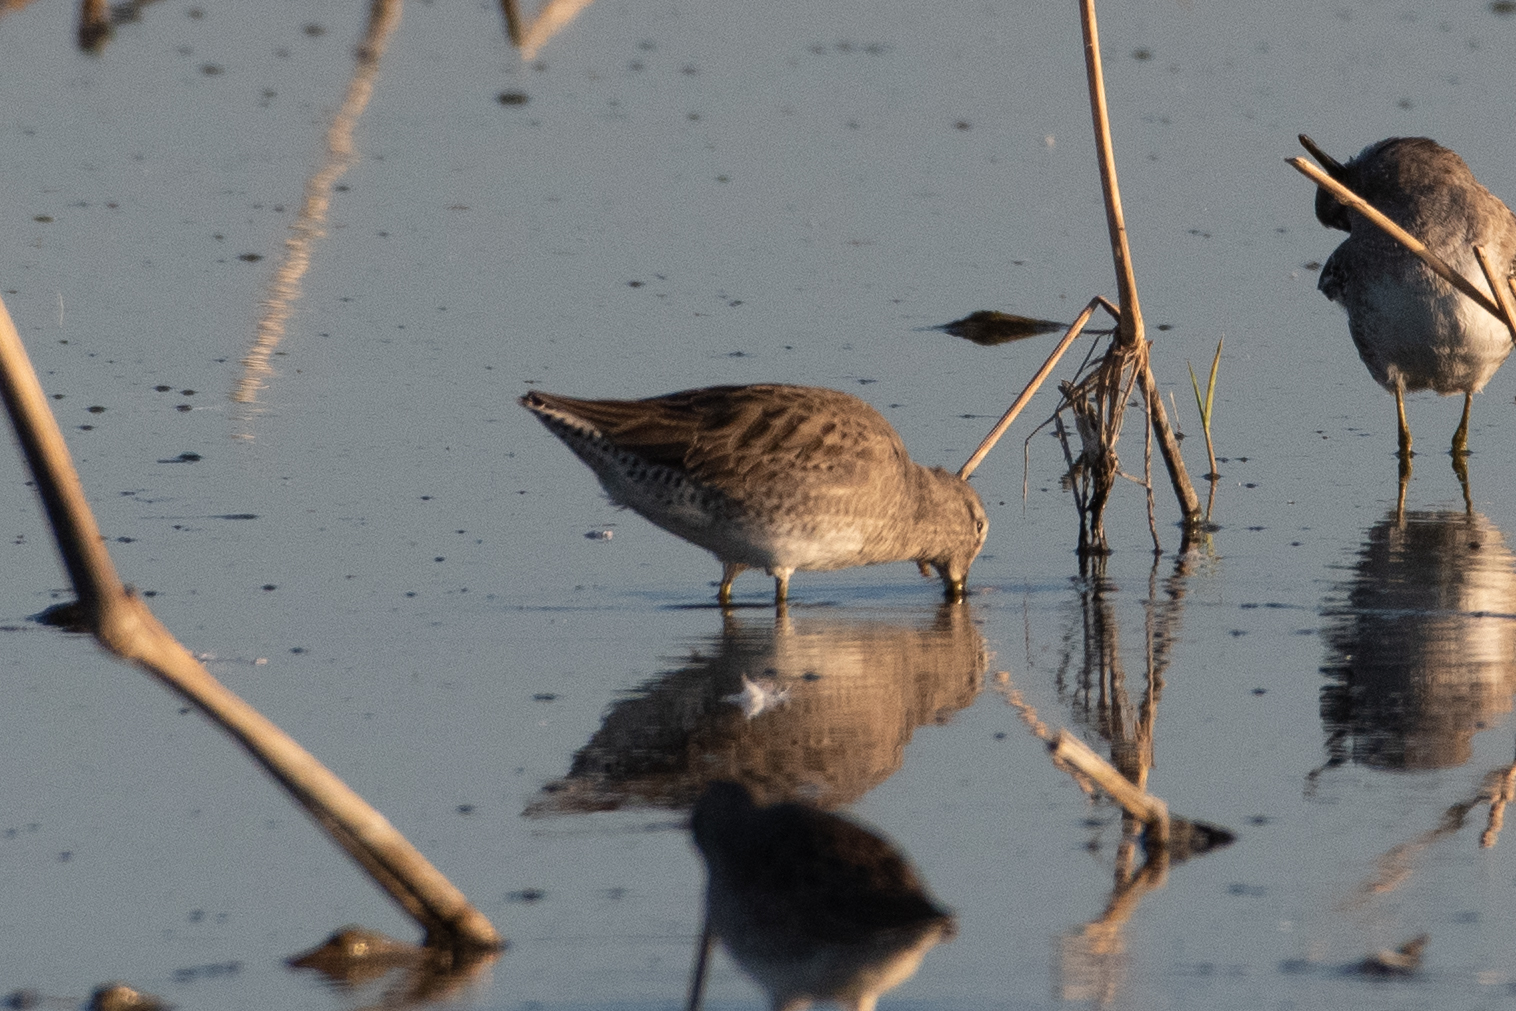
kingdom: Animalia
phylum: Chordata
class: Aves
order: Charadriiformes
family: Scolopacidae
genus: Limnodromus
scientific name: Limnodromus scolopaceus
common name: Long-billed dowitcher
